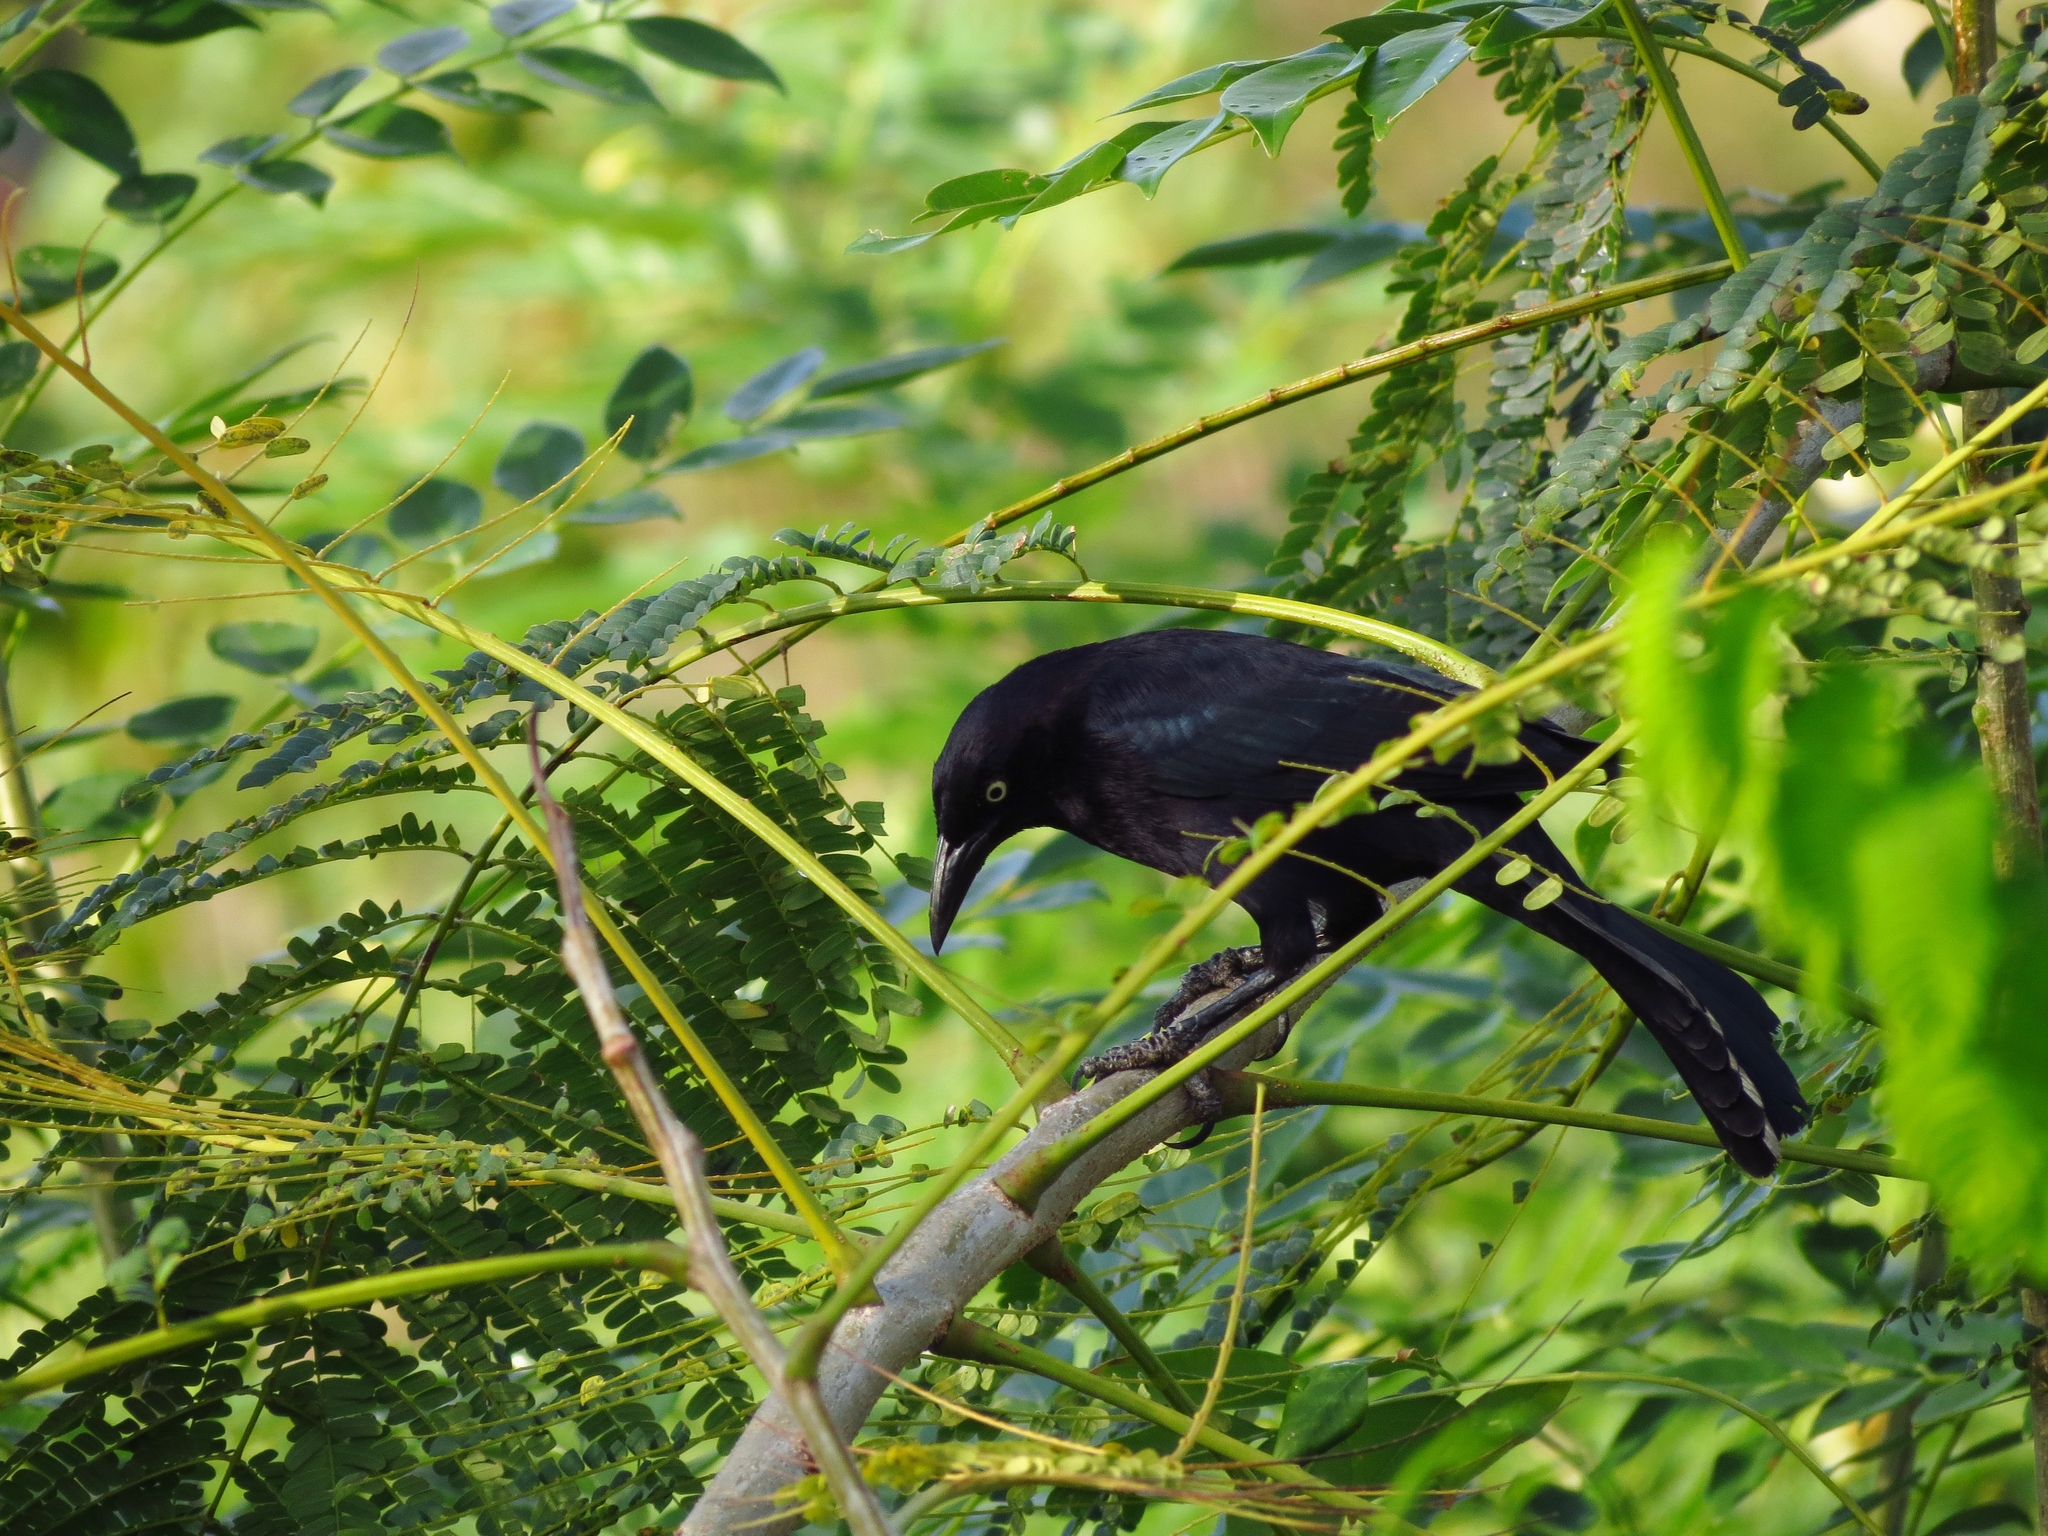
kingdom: Animalia
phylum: Chordata
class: Aves
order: Passeriformes
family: Icteridae
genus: Quiscalus
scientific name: Quiscalus lugubris
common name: Carib grackle
